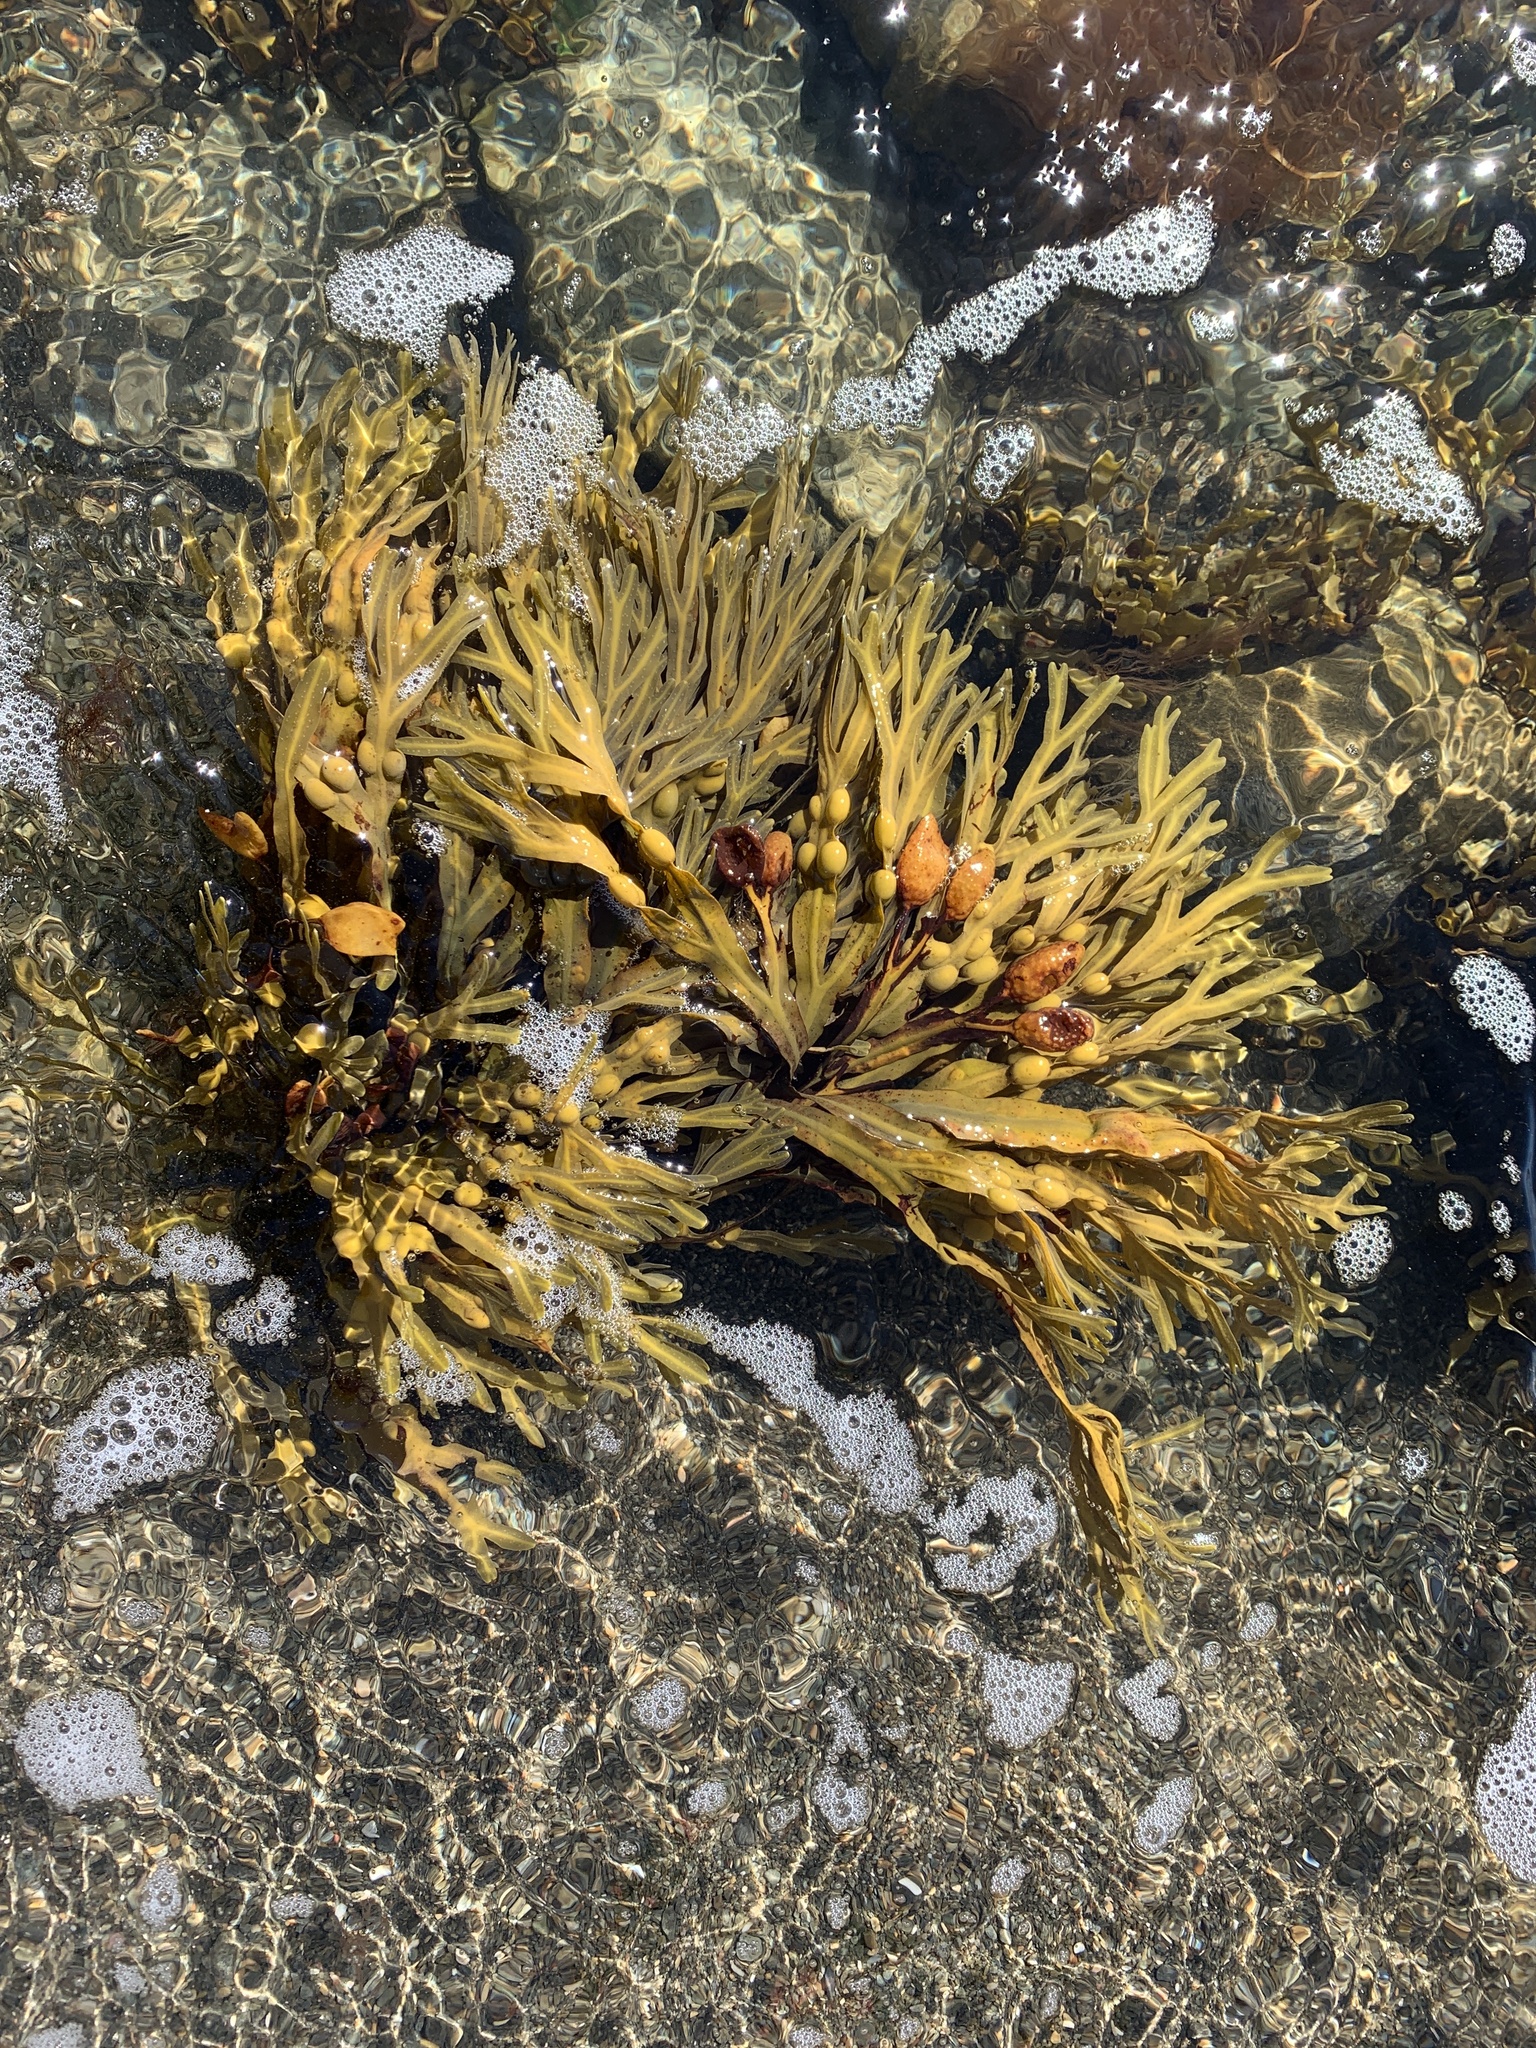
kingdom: Chromista
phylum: Ochrophyta
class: Phaeophyceae
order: Fucales
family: Fucaceae
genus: Fucus
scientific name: Fucus vesiculosus
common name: Bladder wrack
